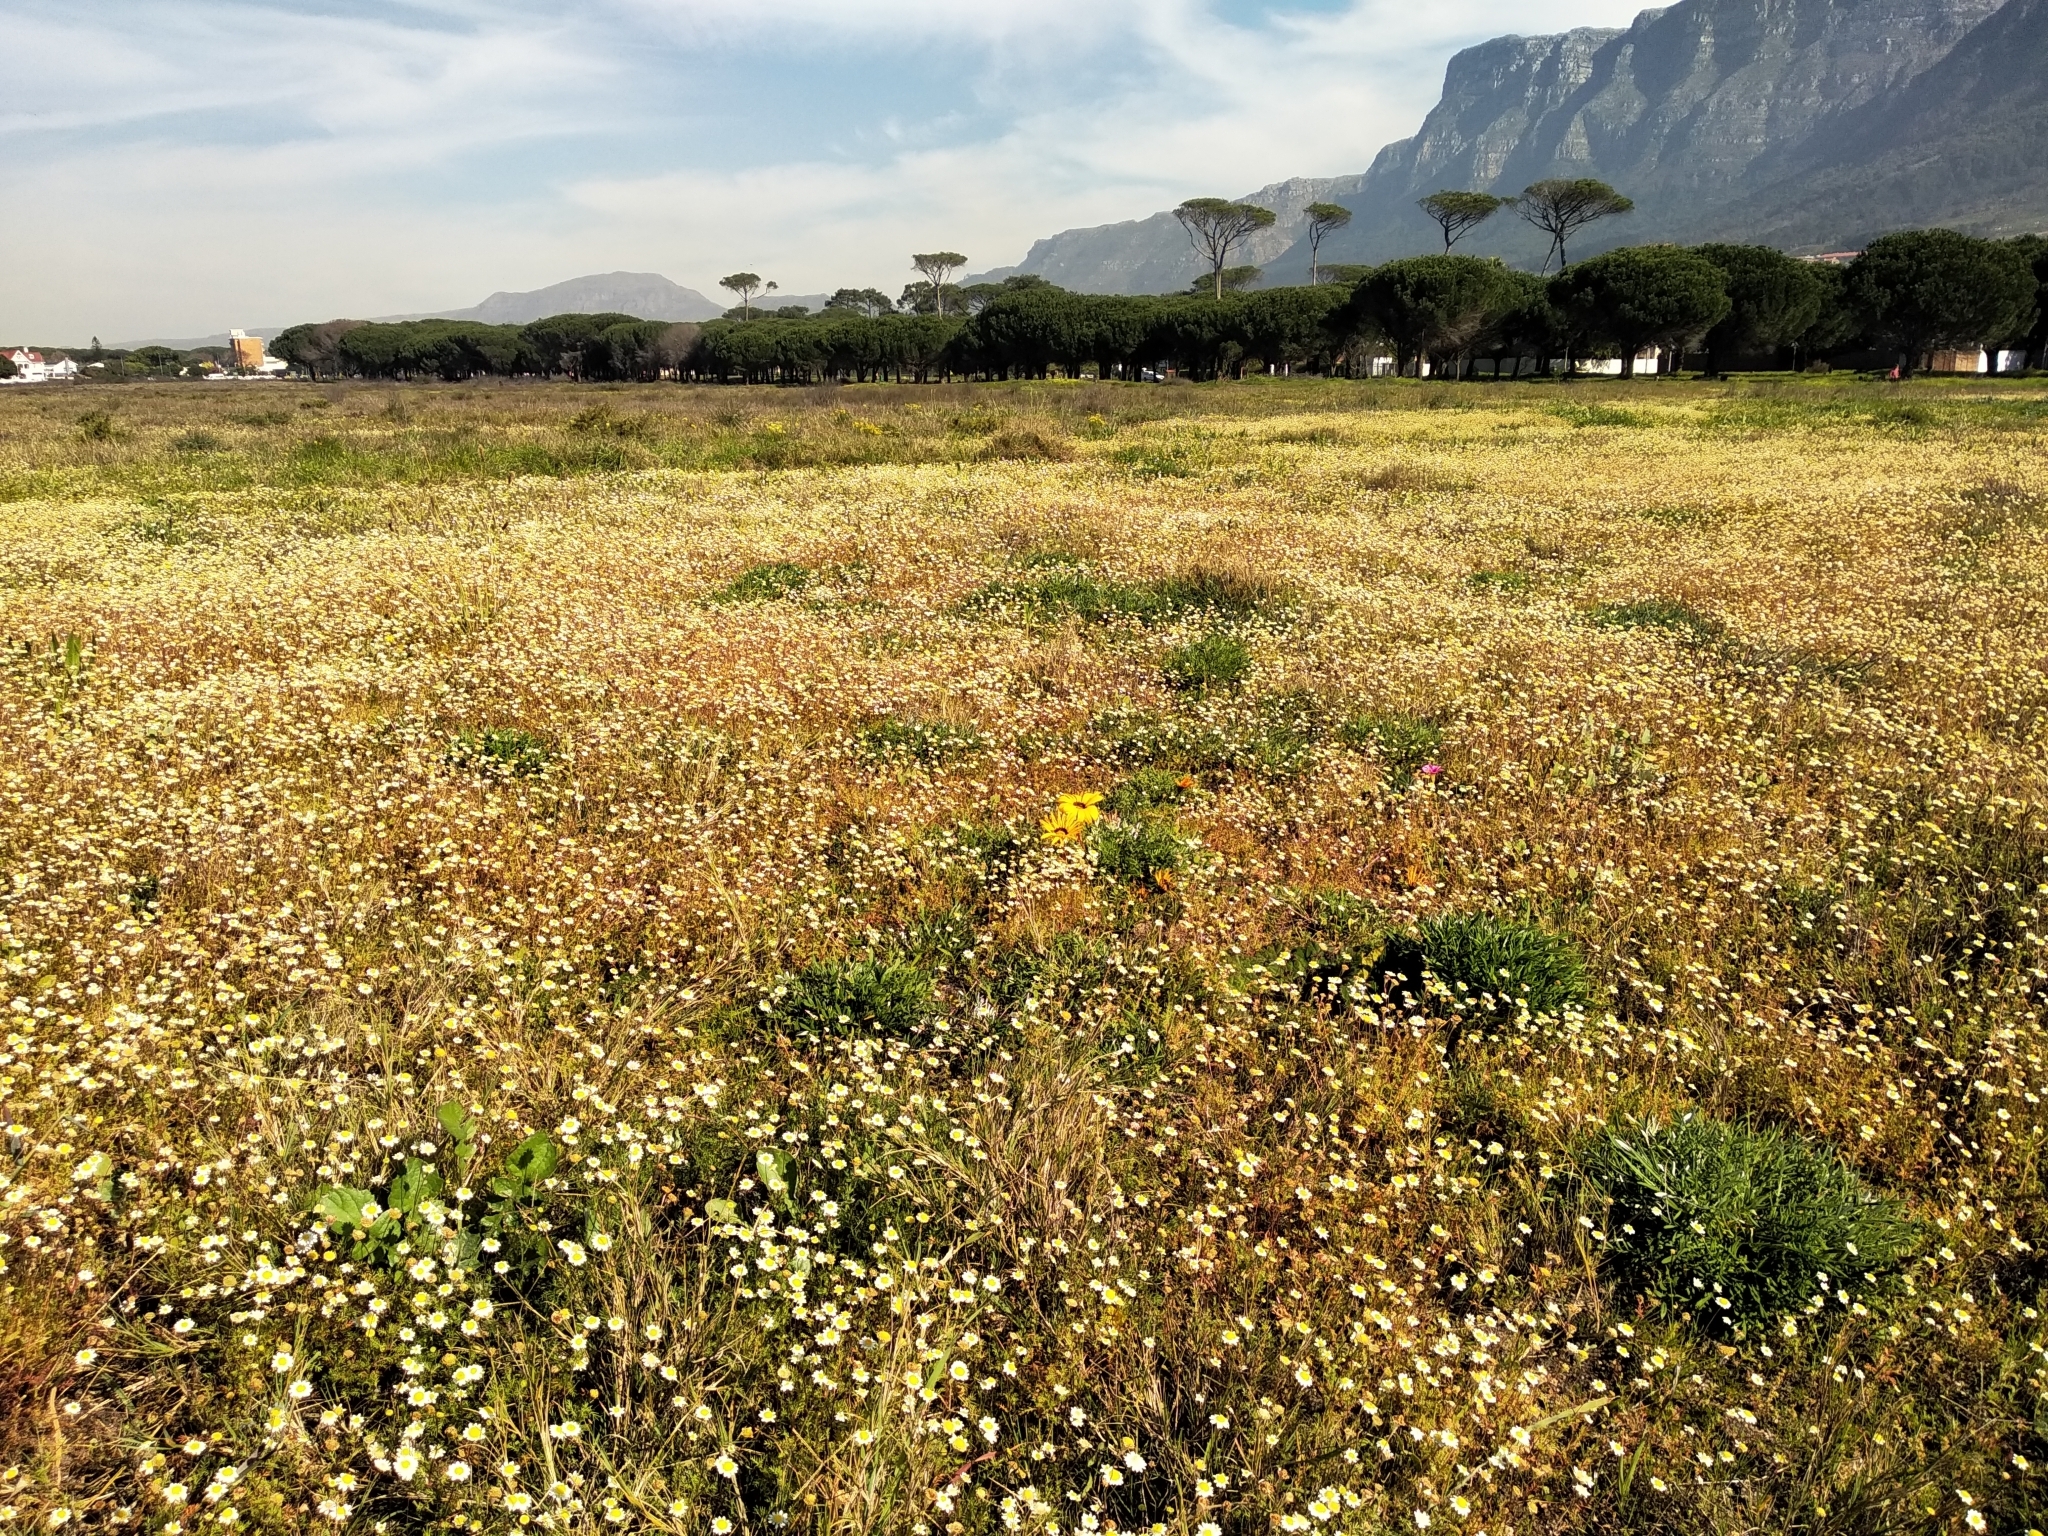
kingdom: Plantae
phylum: Tracheophyta
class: Magnoliopsida
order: Asterales
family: Asteraceae
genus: Gazania
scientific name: Gazania pectinata
